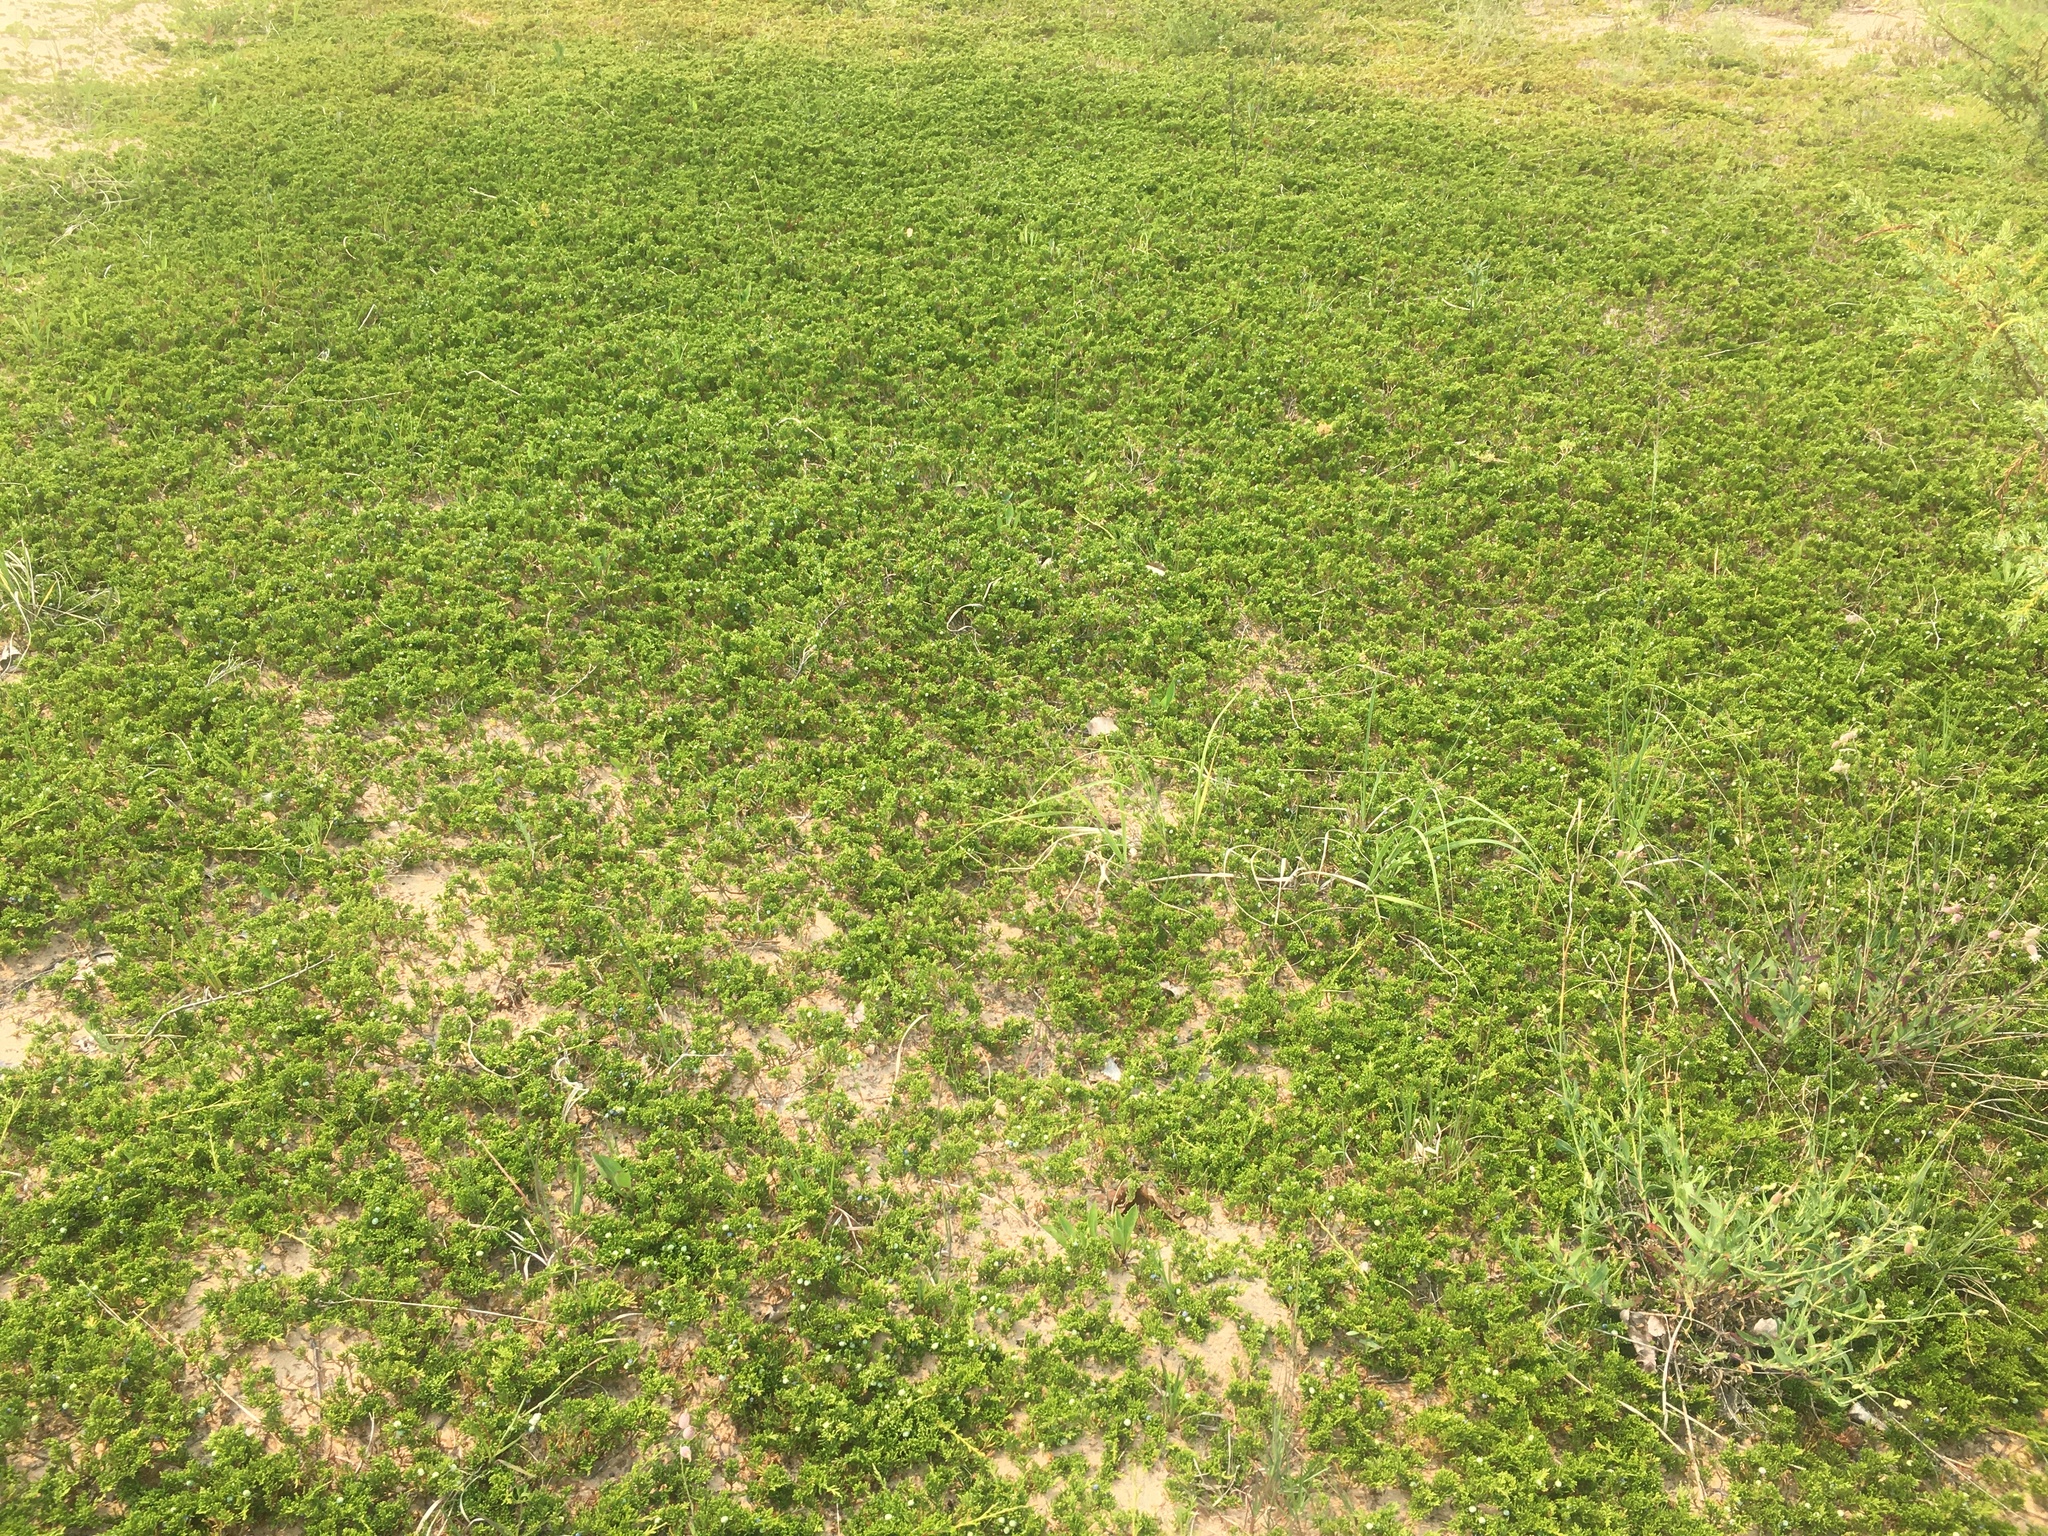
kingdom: Plantae
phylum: Tracheophyta
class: Pinopsida
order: Pinales
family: Cupressaceae
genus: Juniperus
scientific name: Juniperus horizontalis
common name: Creeping juniper
